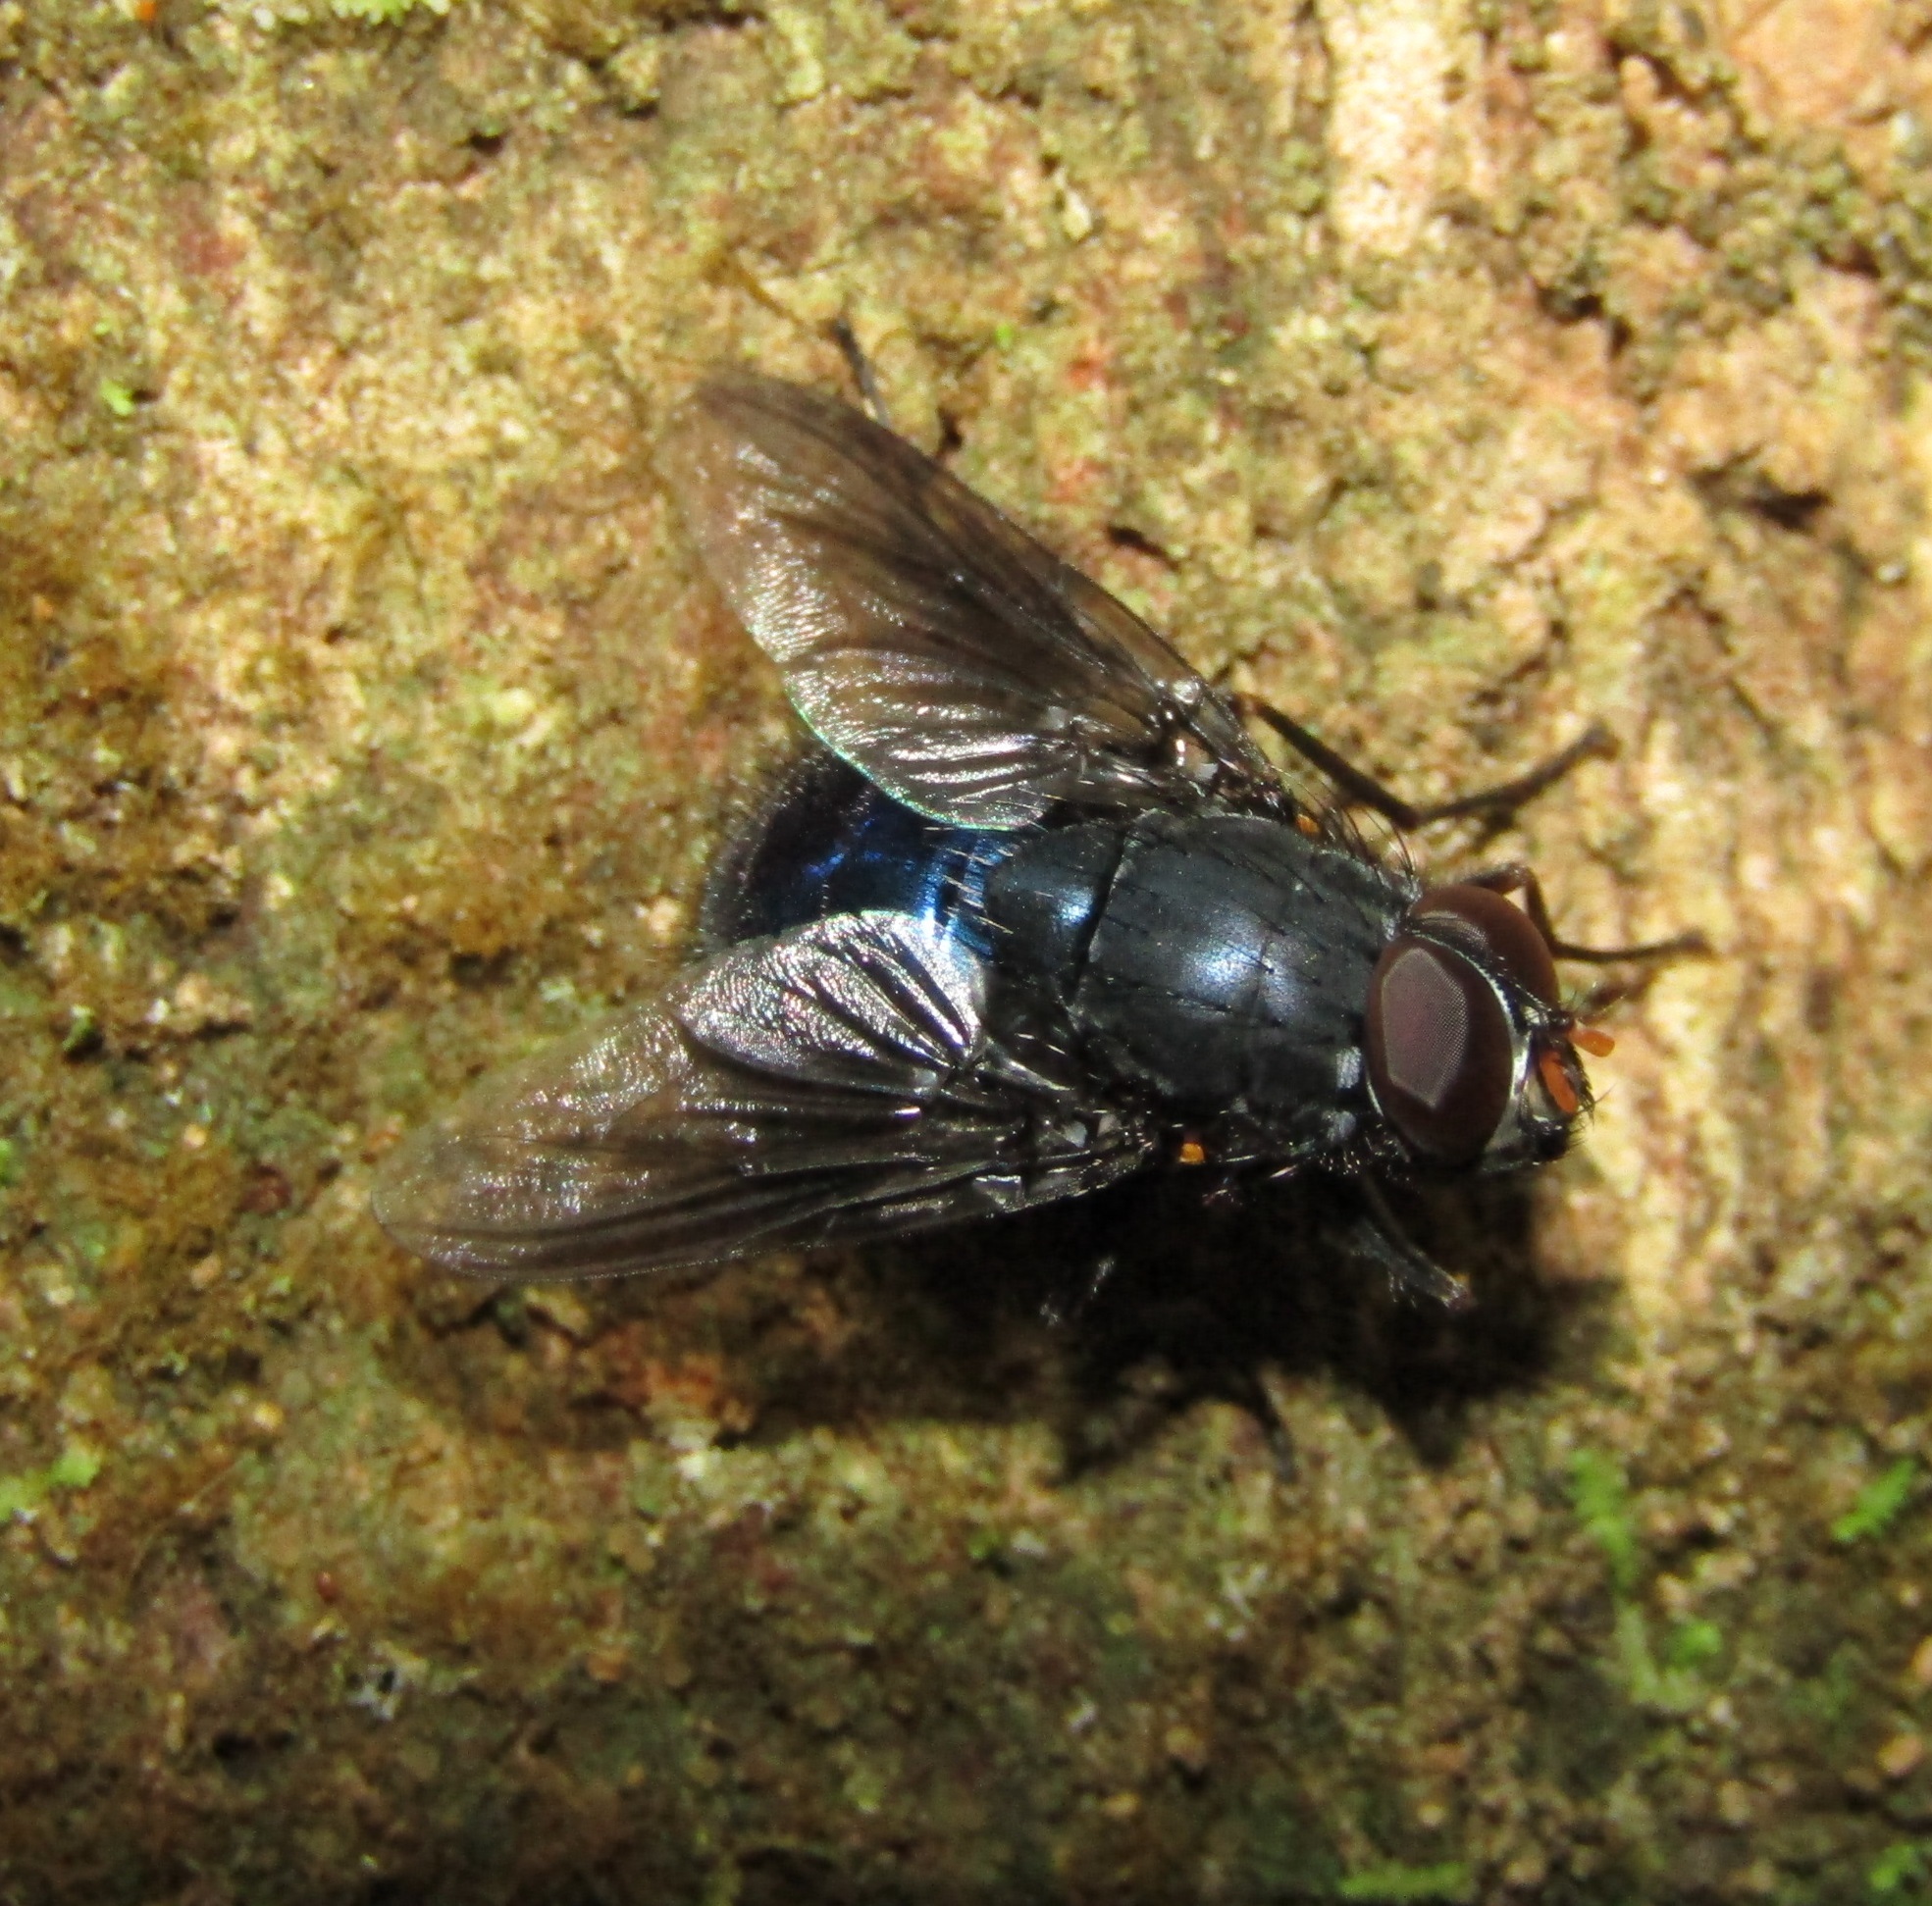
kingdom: Animalia
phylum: Arthropoda
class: Insecta
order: Diptera
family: Muscidae
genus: Calliphoroides
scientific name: Calliphoroides antennatis
